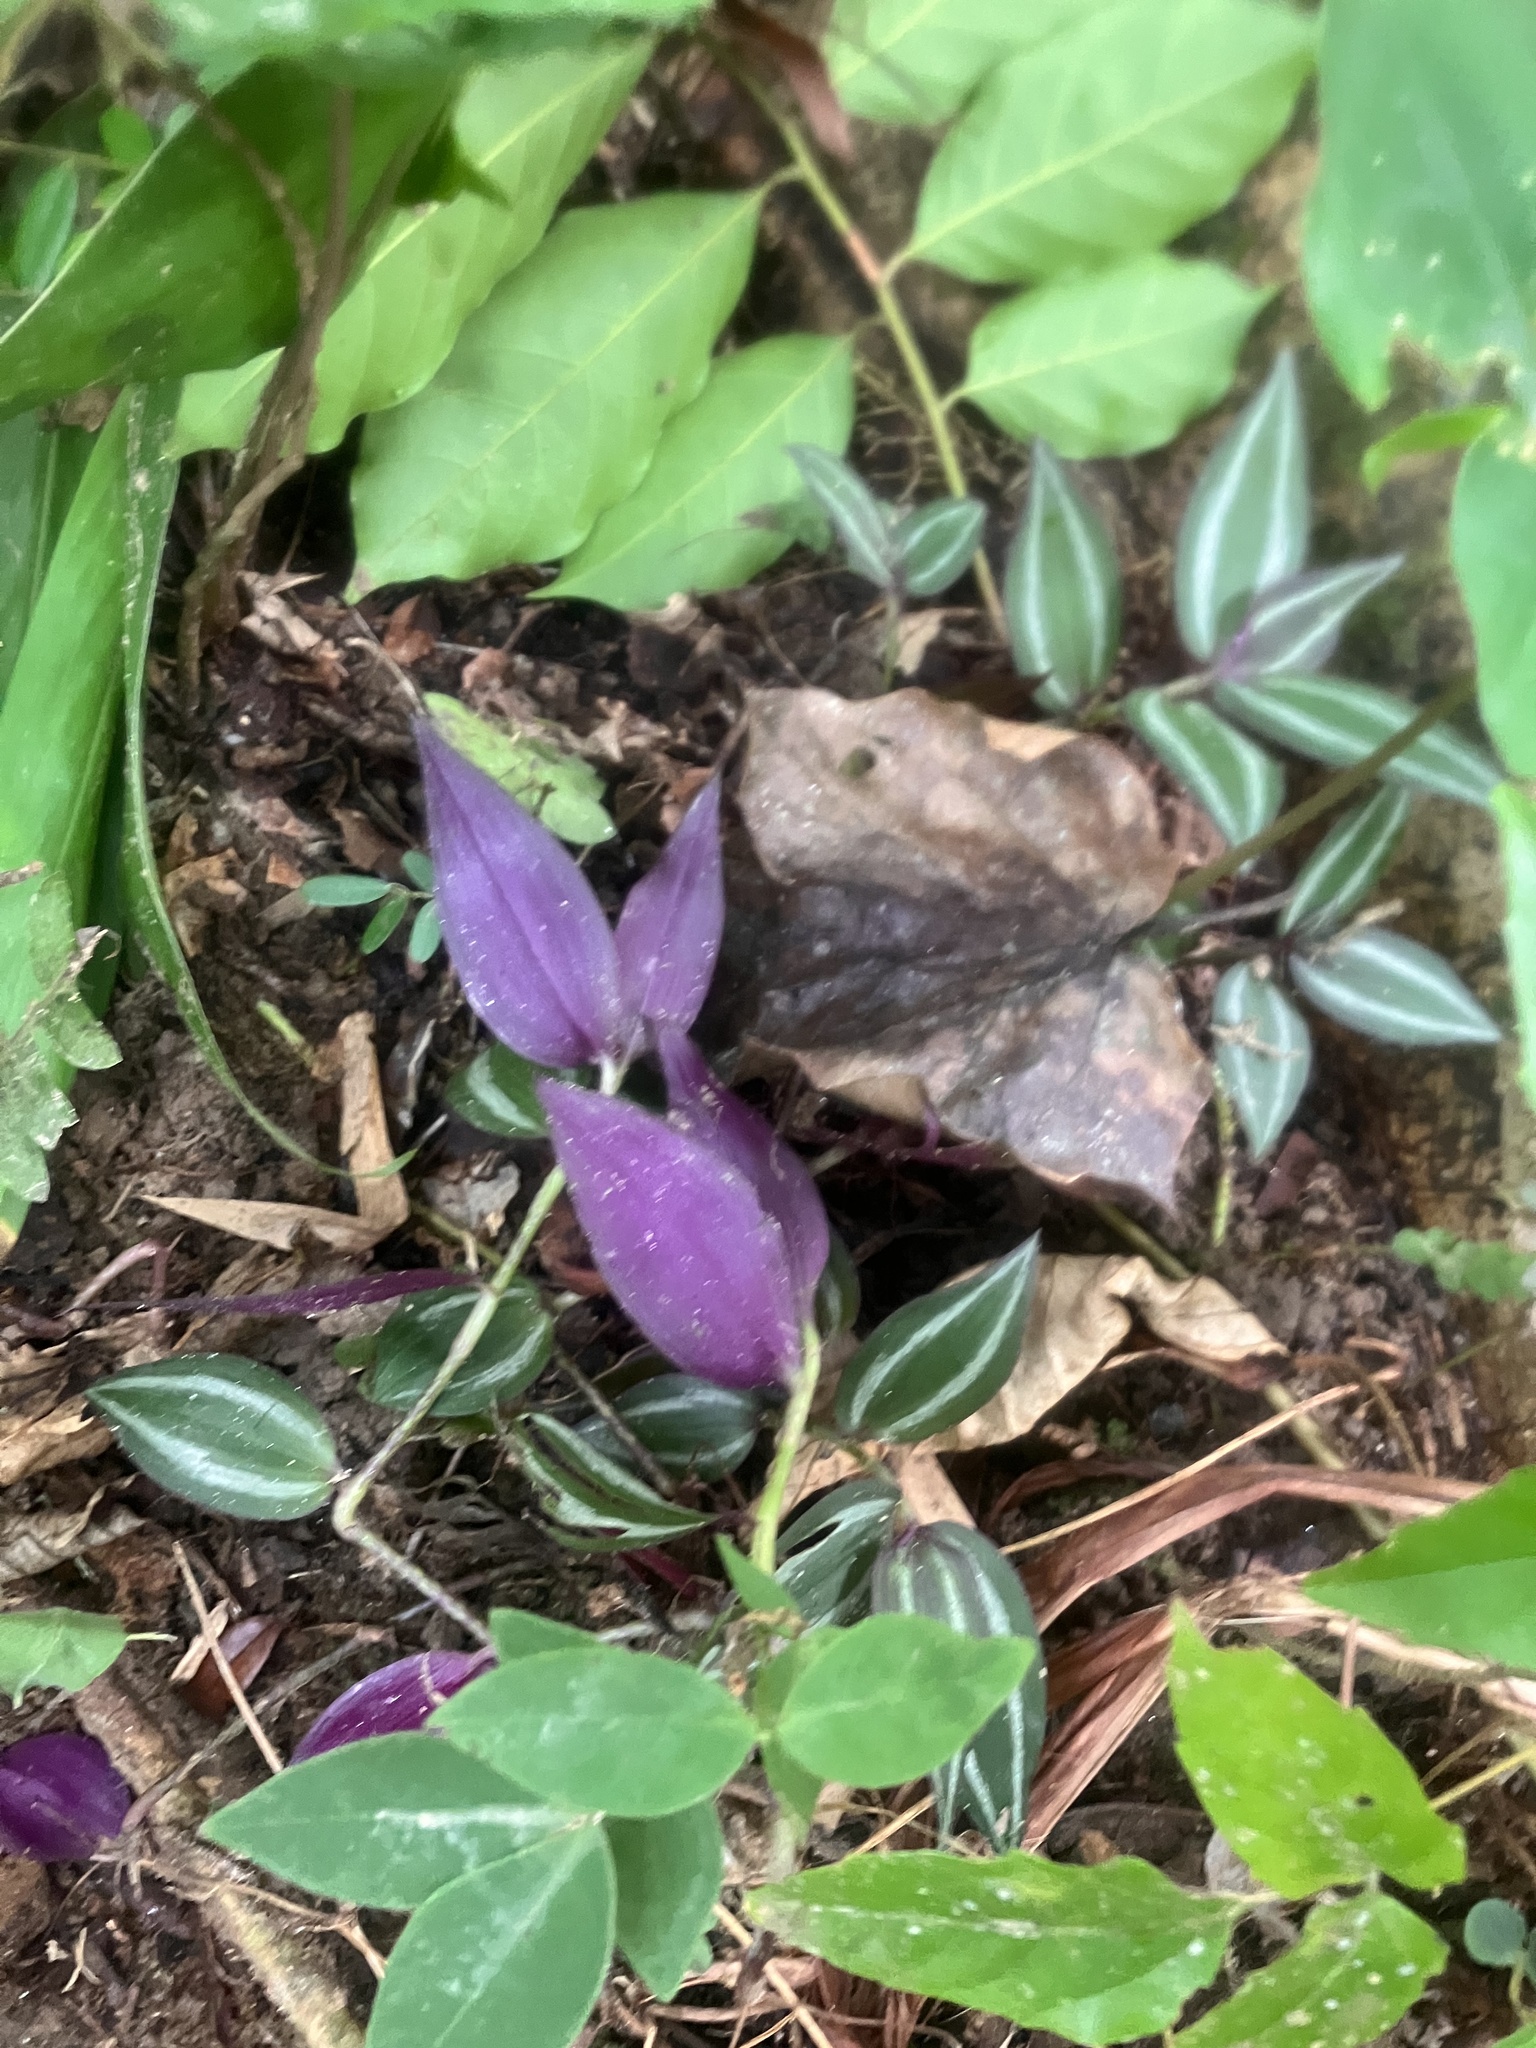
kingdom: Plantae
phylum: Tracheophyta
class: Liliopsida
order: Commelinales
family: Commelinaceae
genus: Tradescantia
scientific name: Tradescantia zebrina
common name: Inchplant
